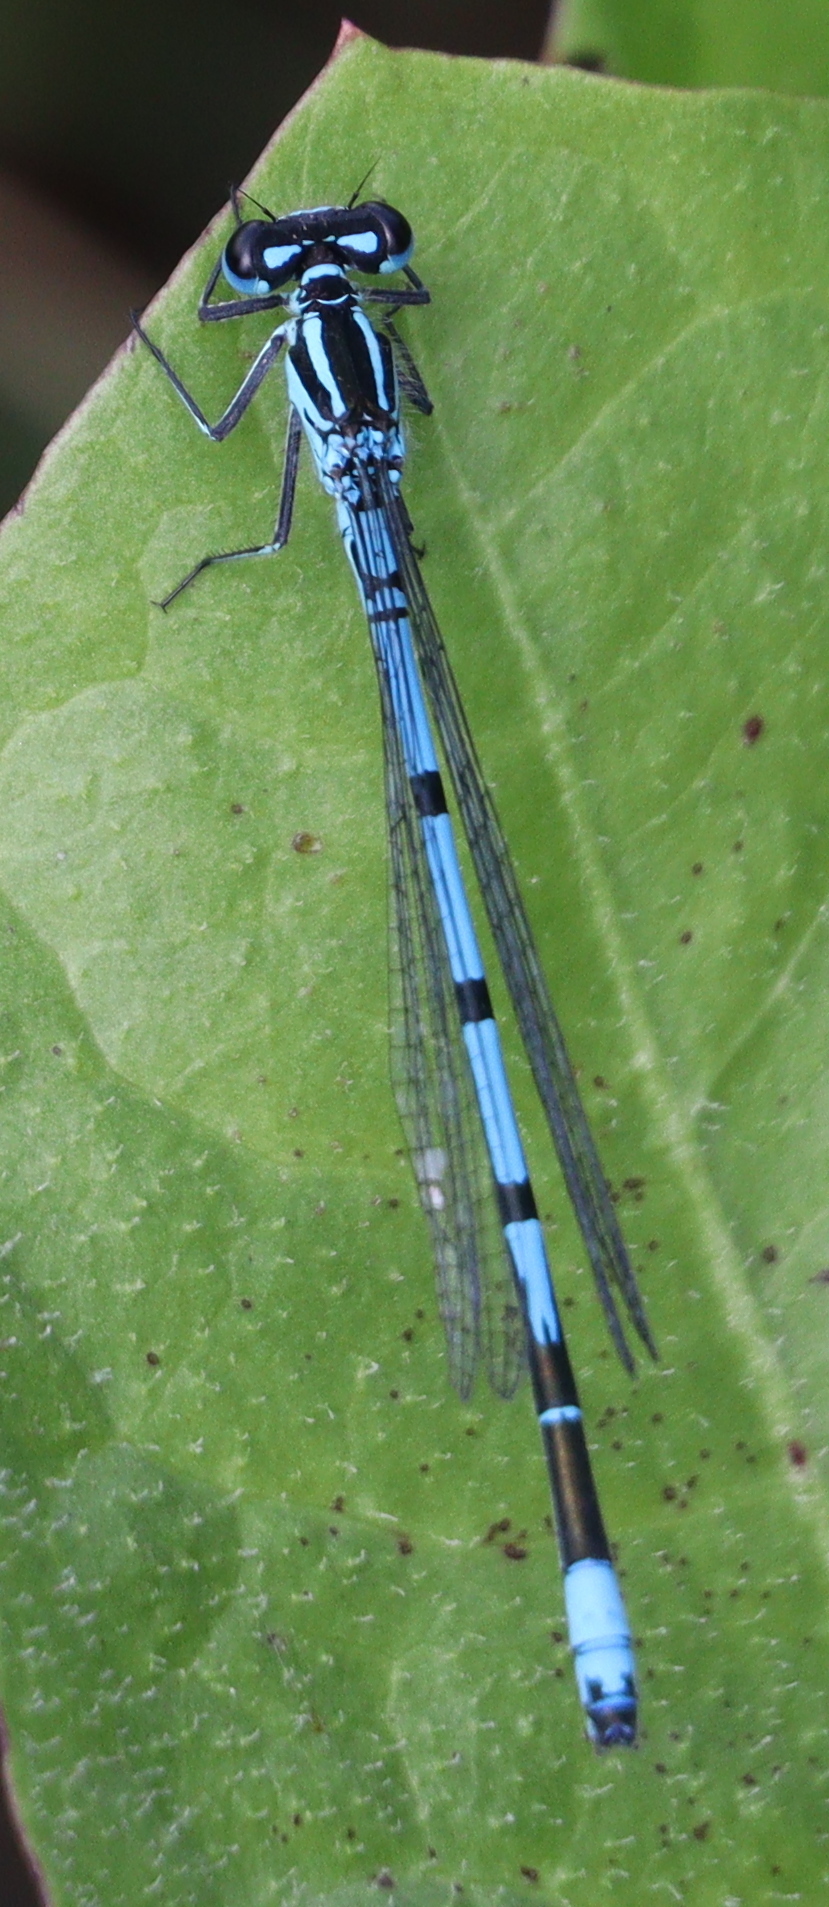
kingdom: Animalia
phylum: Arthropoda
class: Insecta
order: Odonata
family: Coenagrionidae
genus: Coenagrion
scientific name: Coenagrion puella
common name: Azure damselfly
